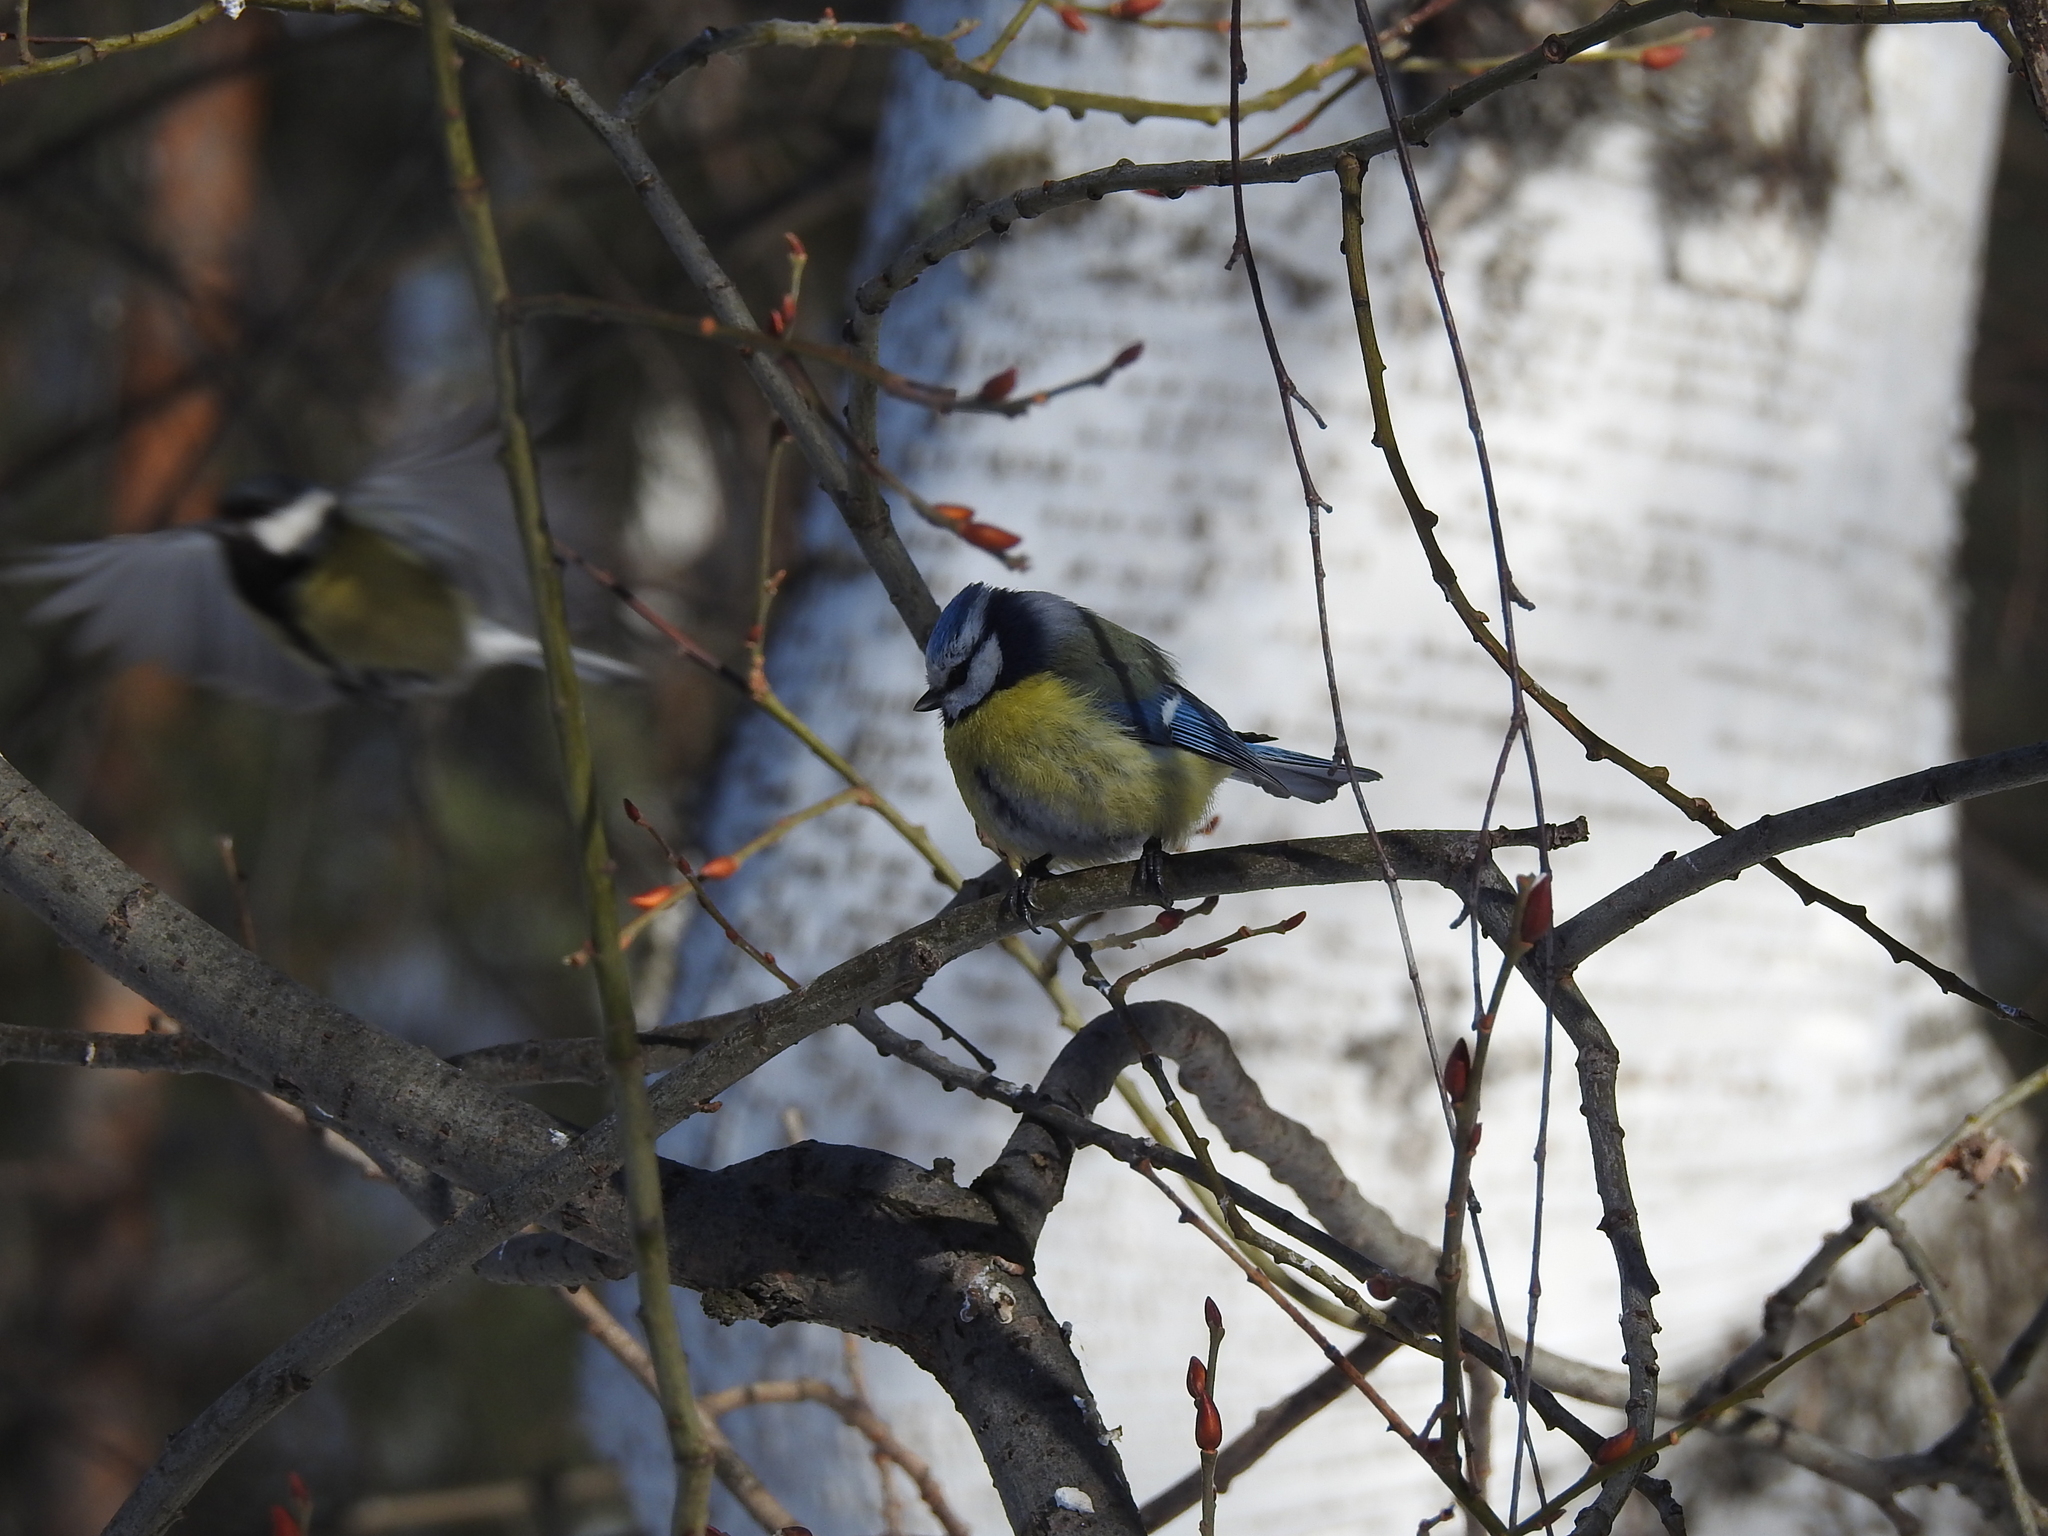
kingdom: Animalia
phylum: Chordata
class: Aves
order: Passeriformes
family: Paridae
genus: Cyanistes
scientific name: Cyanistes caeruleus
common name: Eurasian blue tit
